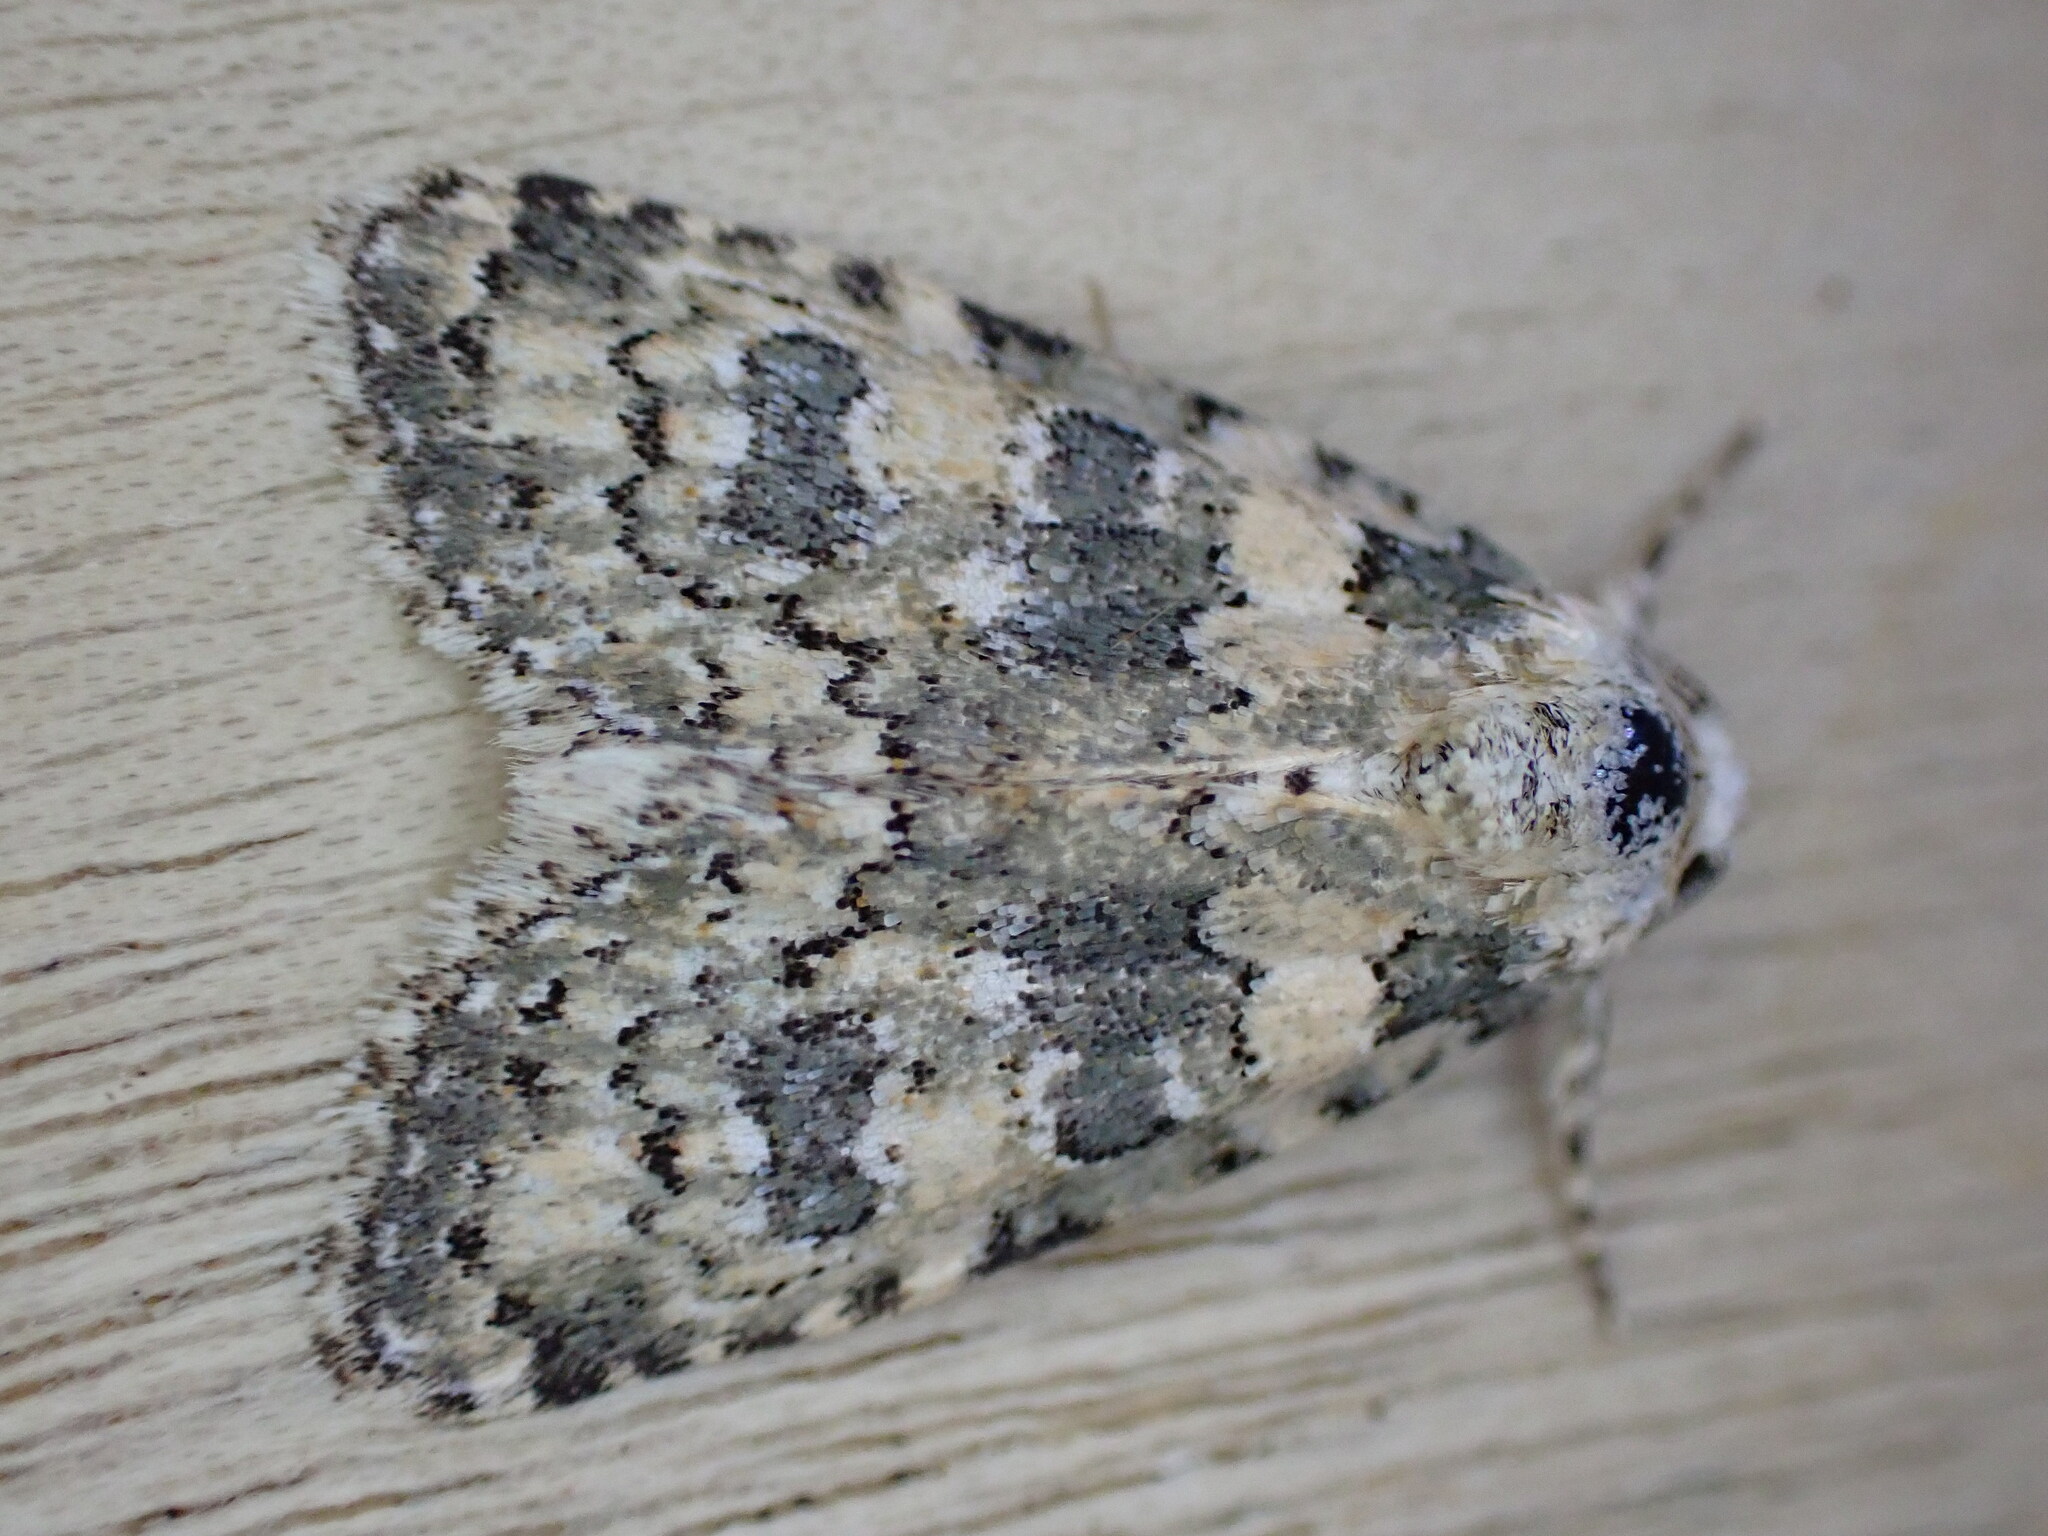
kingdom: Animalia
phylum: Arthropoda
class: Insecta
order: Lepidoptera
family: Noctuidae
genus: Bryophila
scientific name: Bryophila domestica
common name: Marbled beauty
